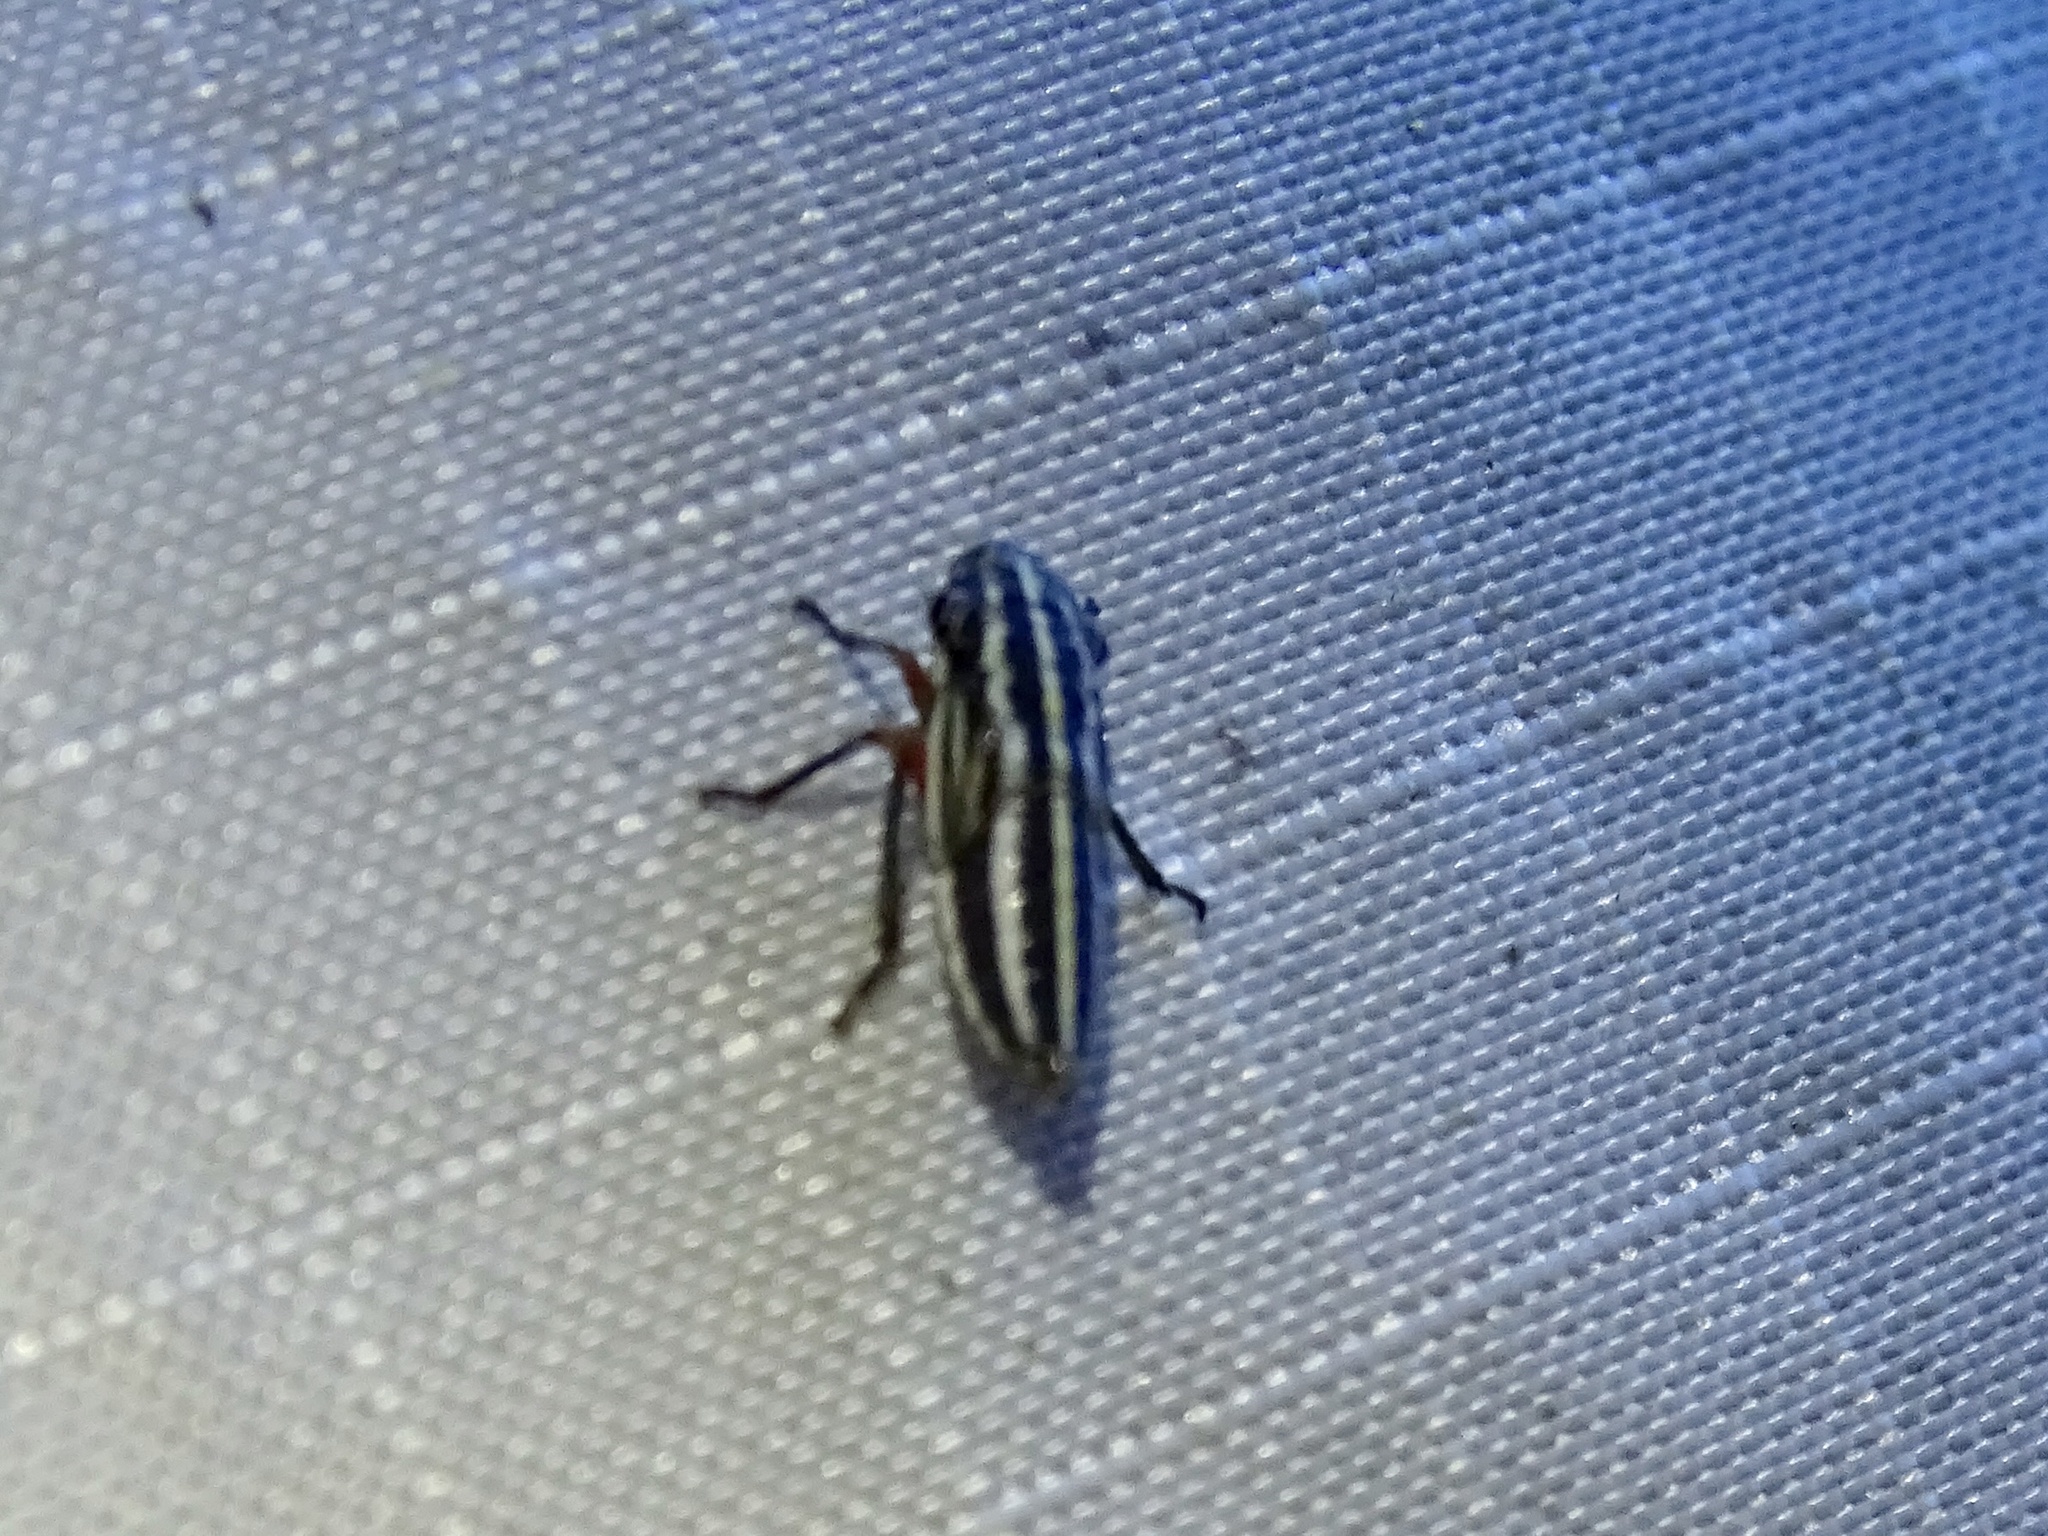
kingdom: Animalia
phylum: Arthropoda
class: Insecta
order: Hemiptera
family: Cicadellidae
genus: Cuerna
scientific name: Cuerna costalis
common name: Lateral-lined sharpshooter
